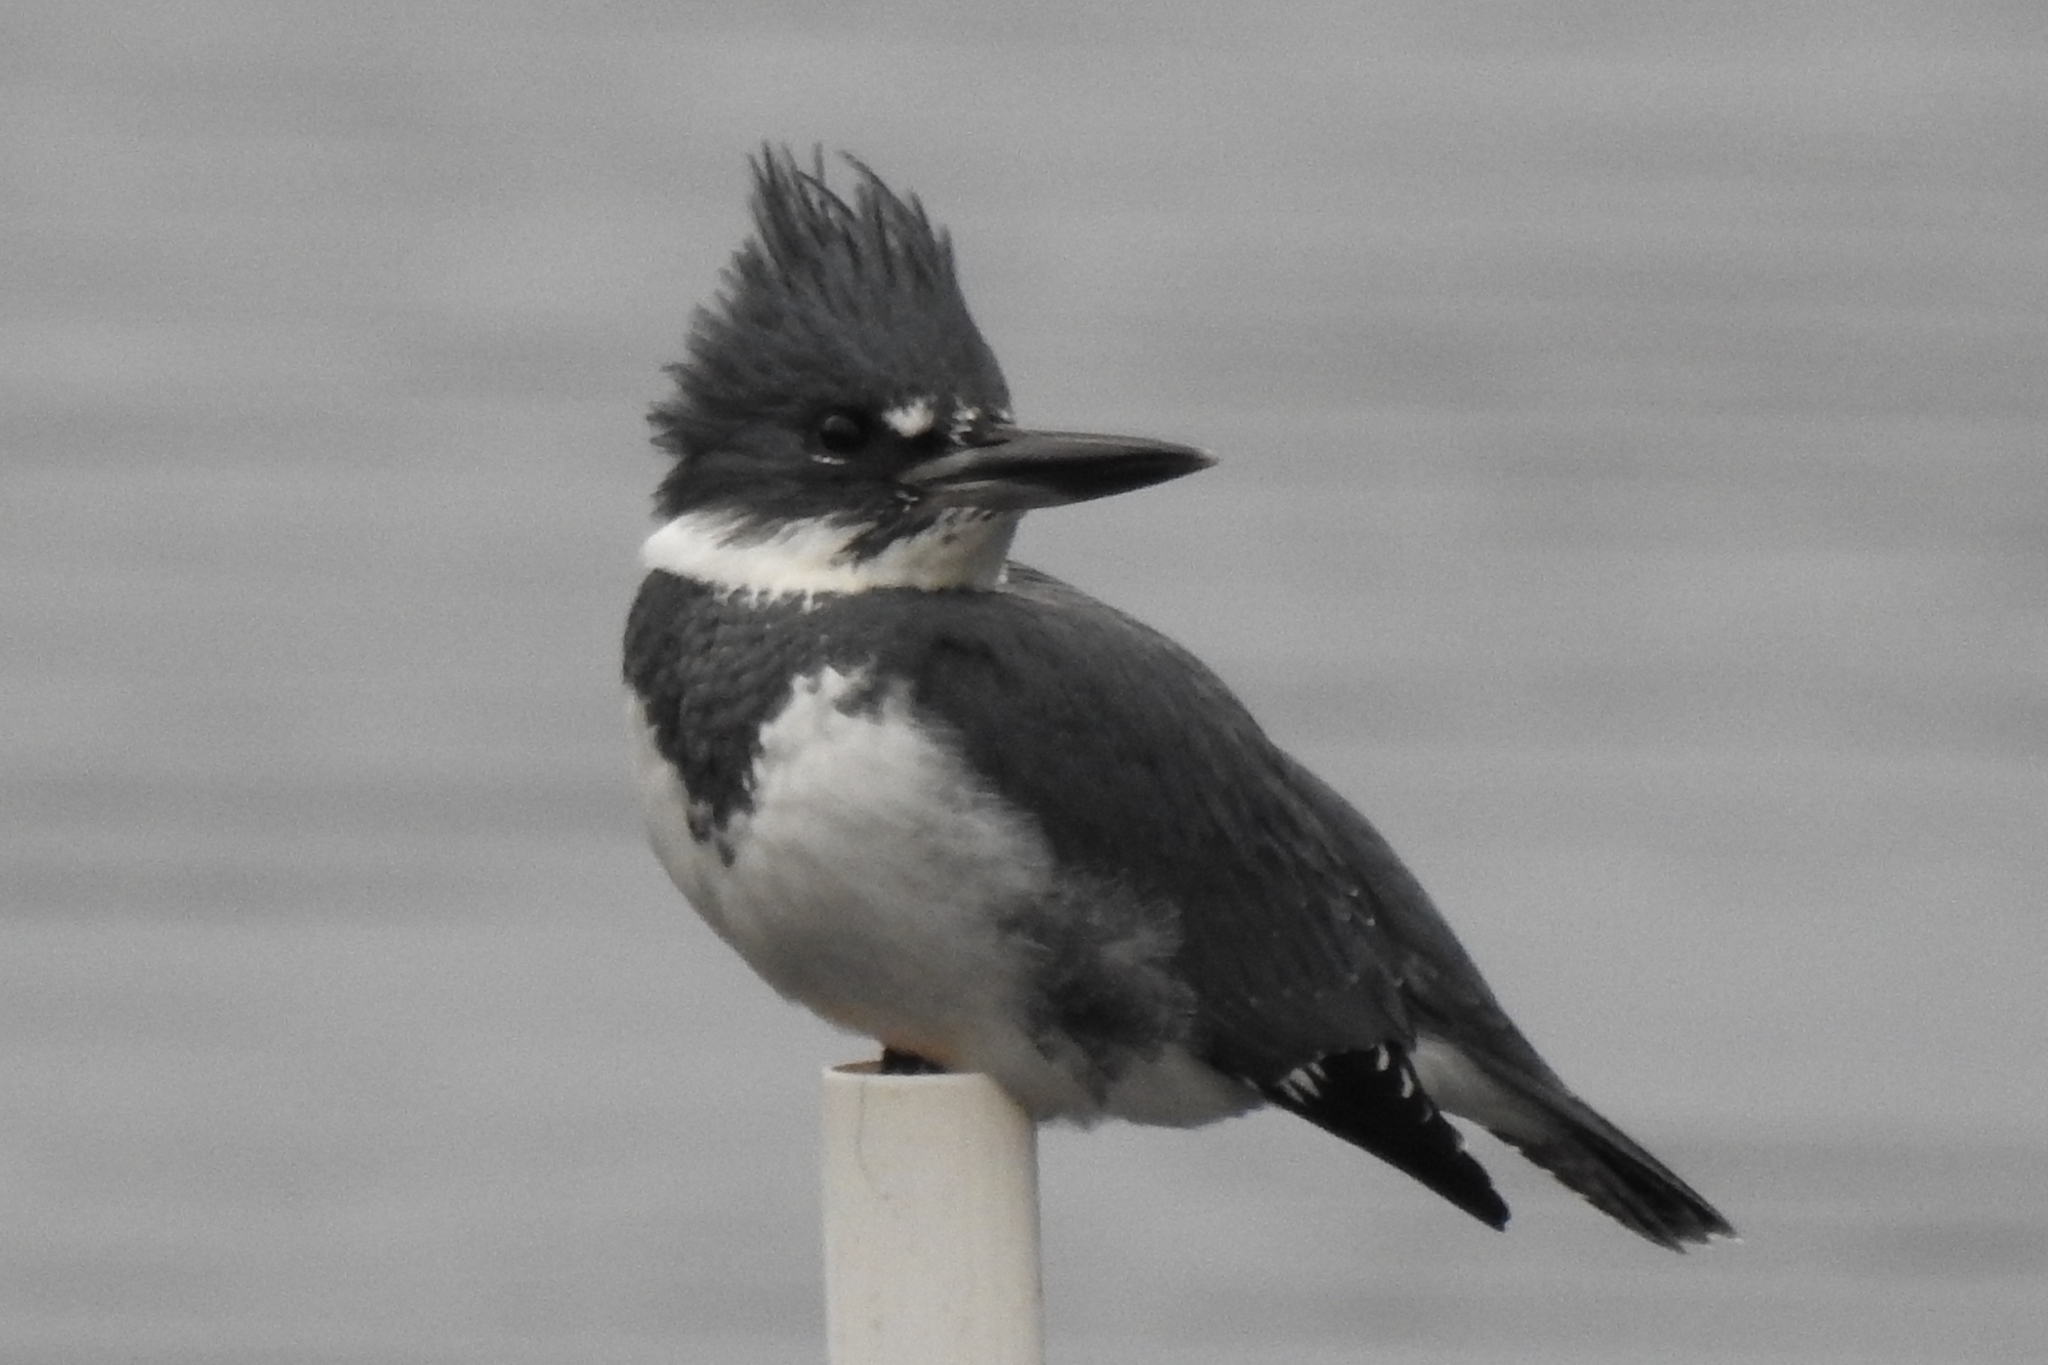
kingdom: Animalia
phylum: Chordata
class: Aves
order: Coraciiformes
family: Alcedinidae
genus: Megaceryle
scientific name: Megaceryle alcyon
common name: Belted kingfisher
